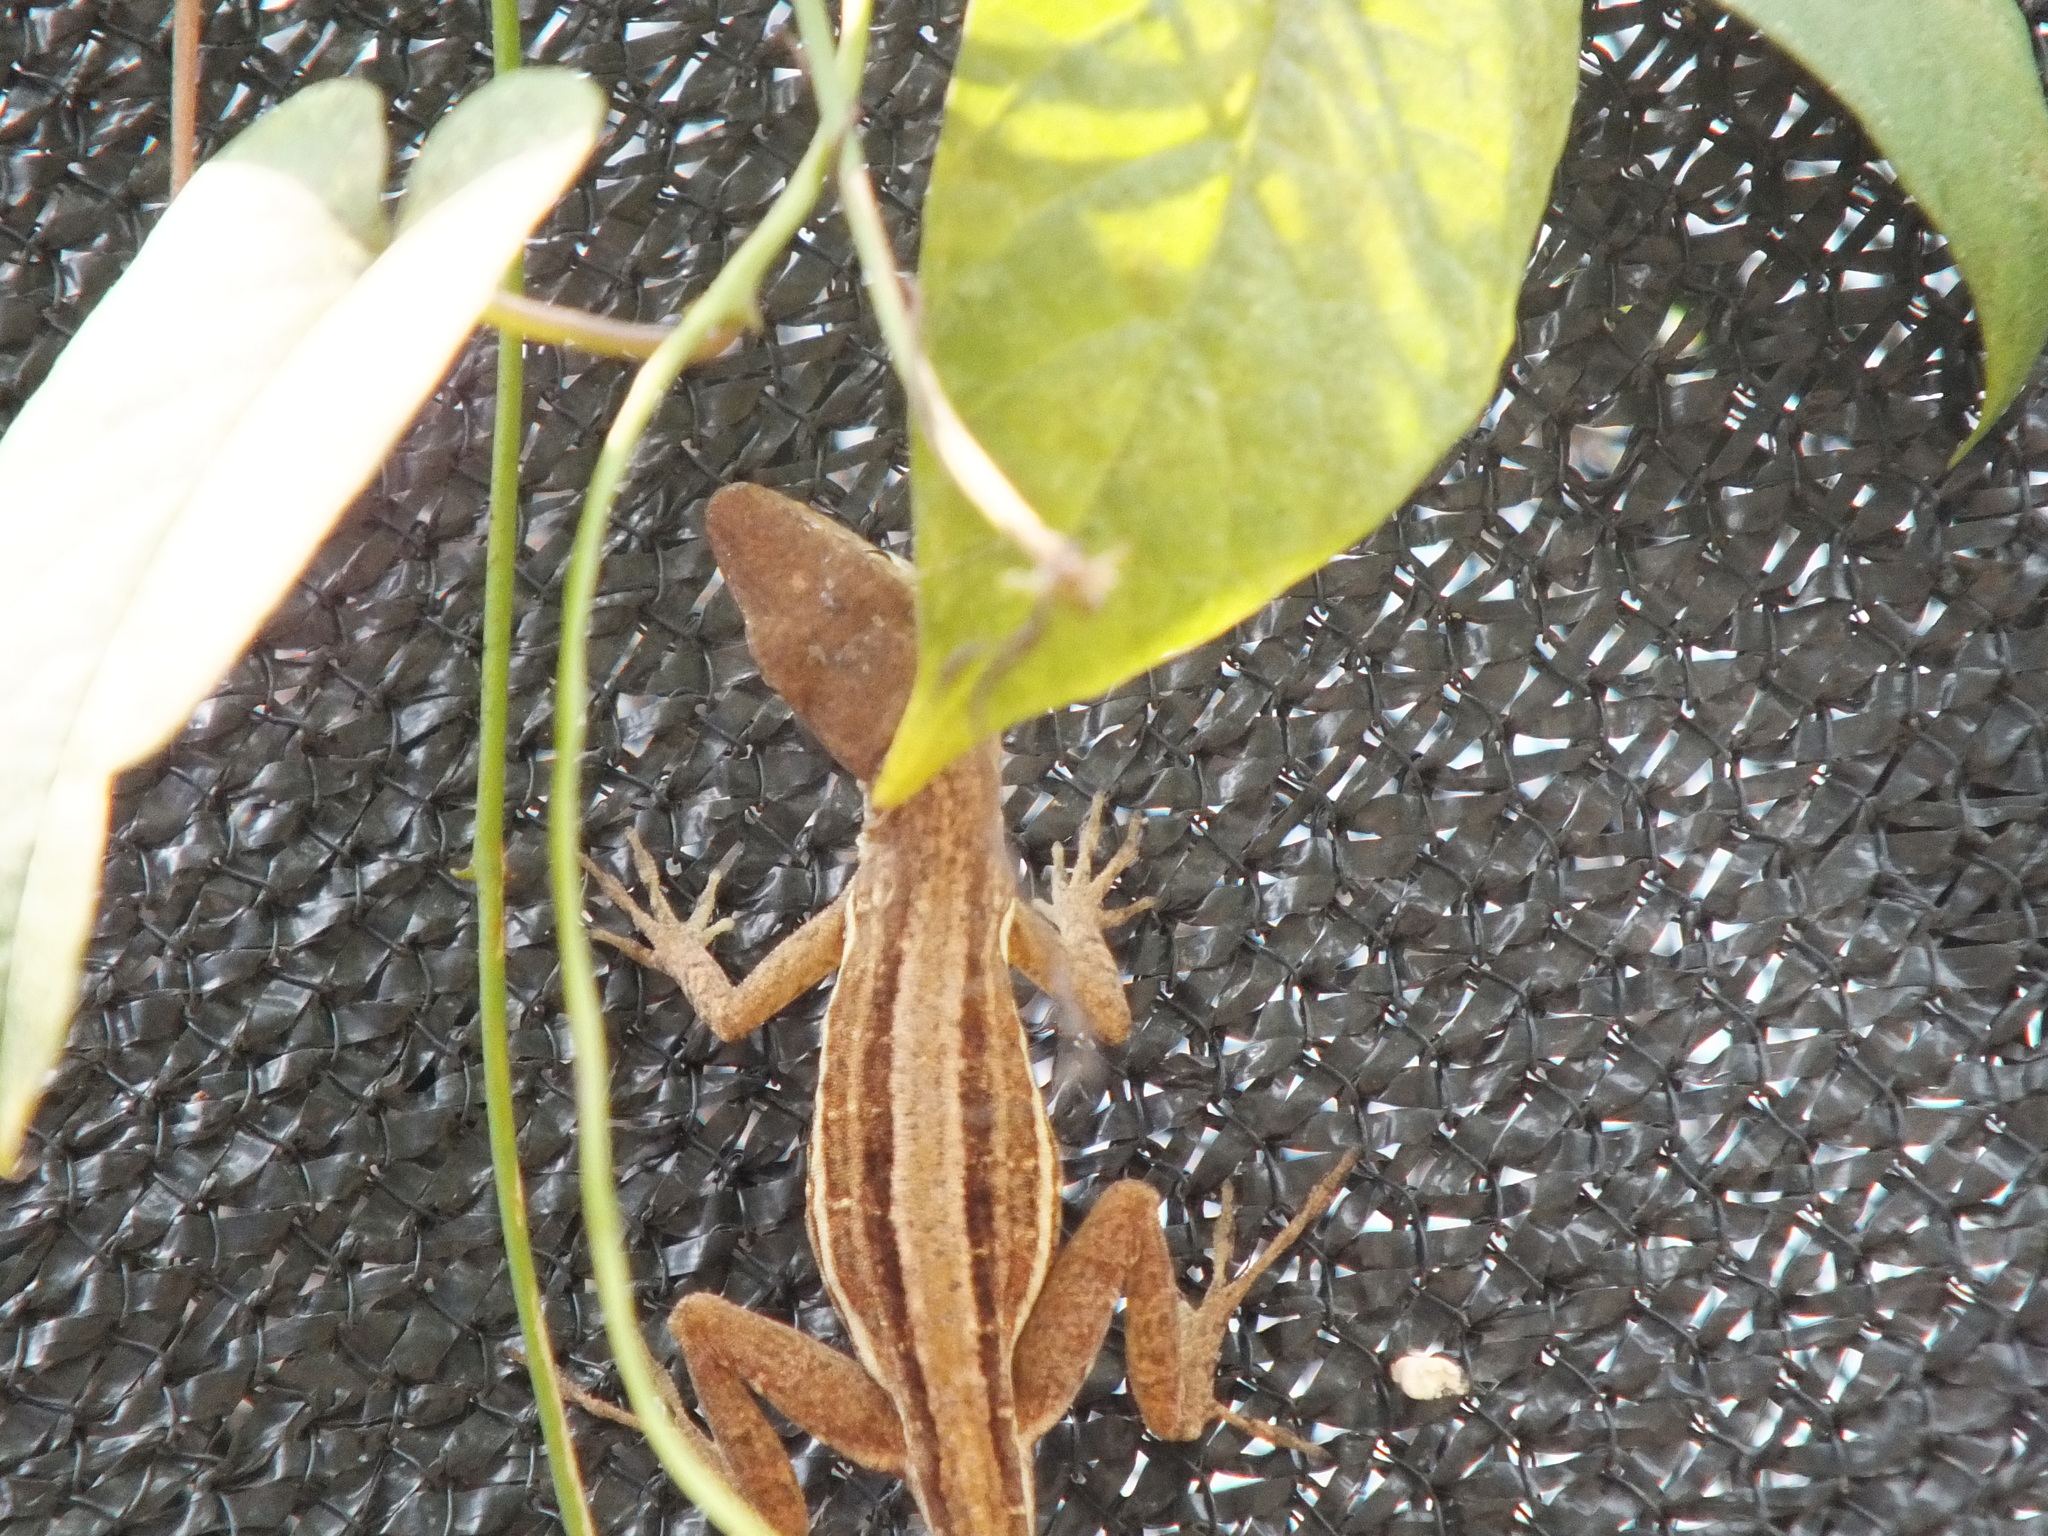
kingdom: Animalia
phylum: Chordata
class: Squamata
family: Dactyloidae
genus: Anolis
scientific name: Anolis lineatopus
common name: Stripefoot anole
